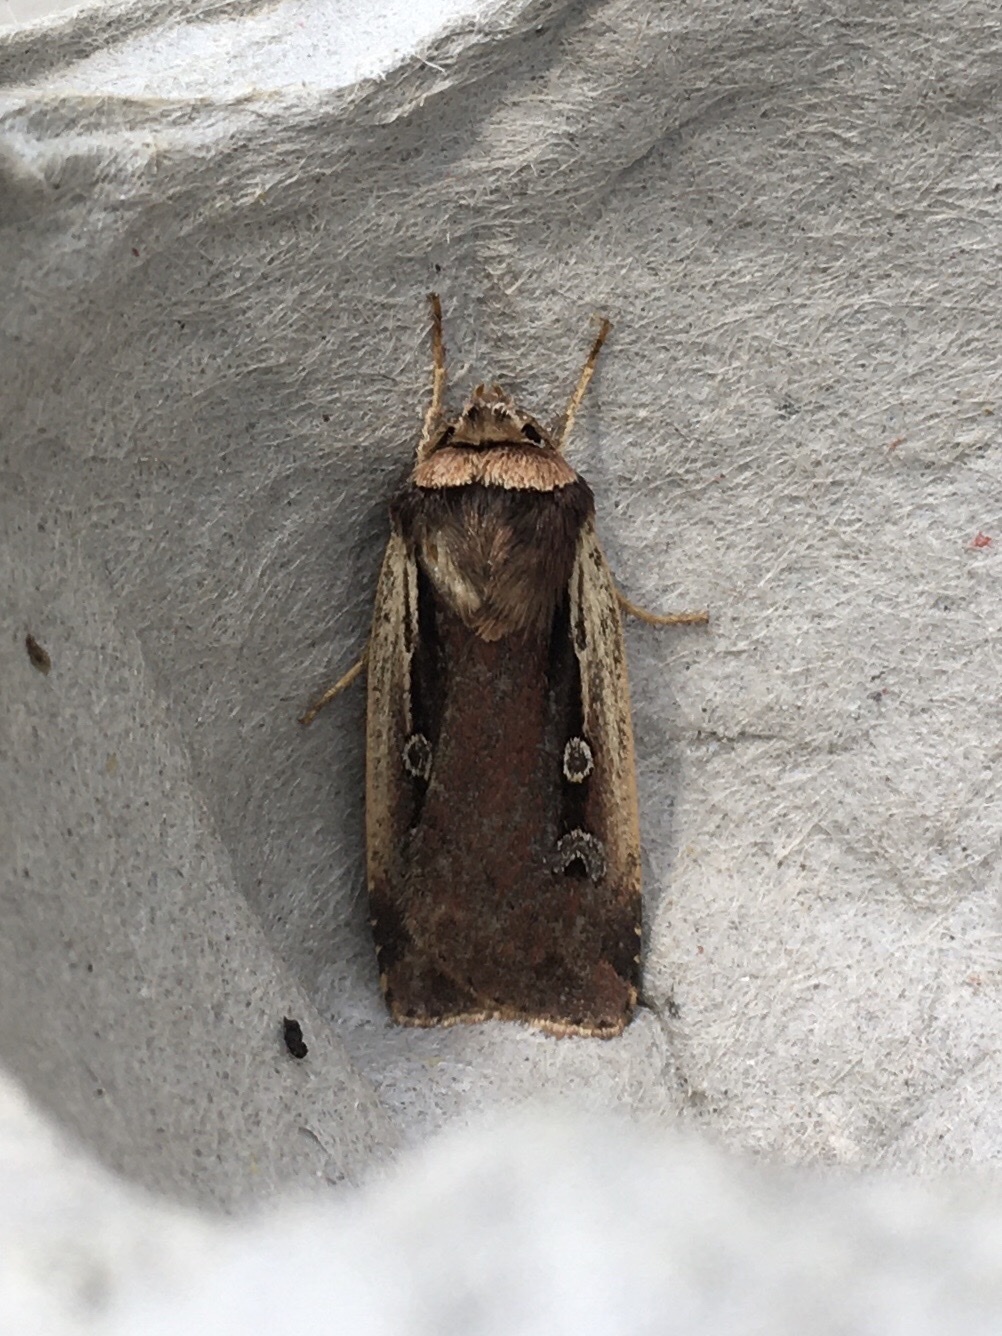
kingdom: Animalia
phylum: Arthropoda
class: Insecta
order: Lepidoptera
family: Noctuidae
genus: Ochropleura
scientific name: Ochropleura implecta
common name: Flame-shouldered dart
